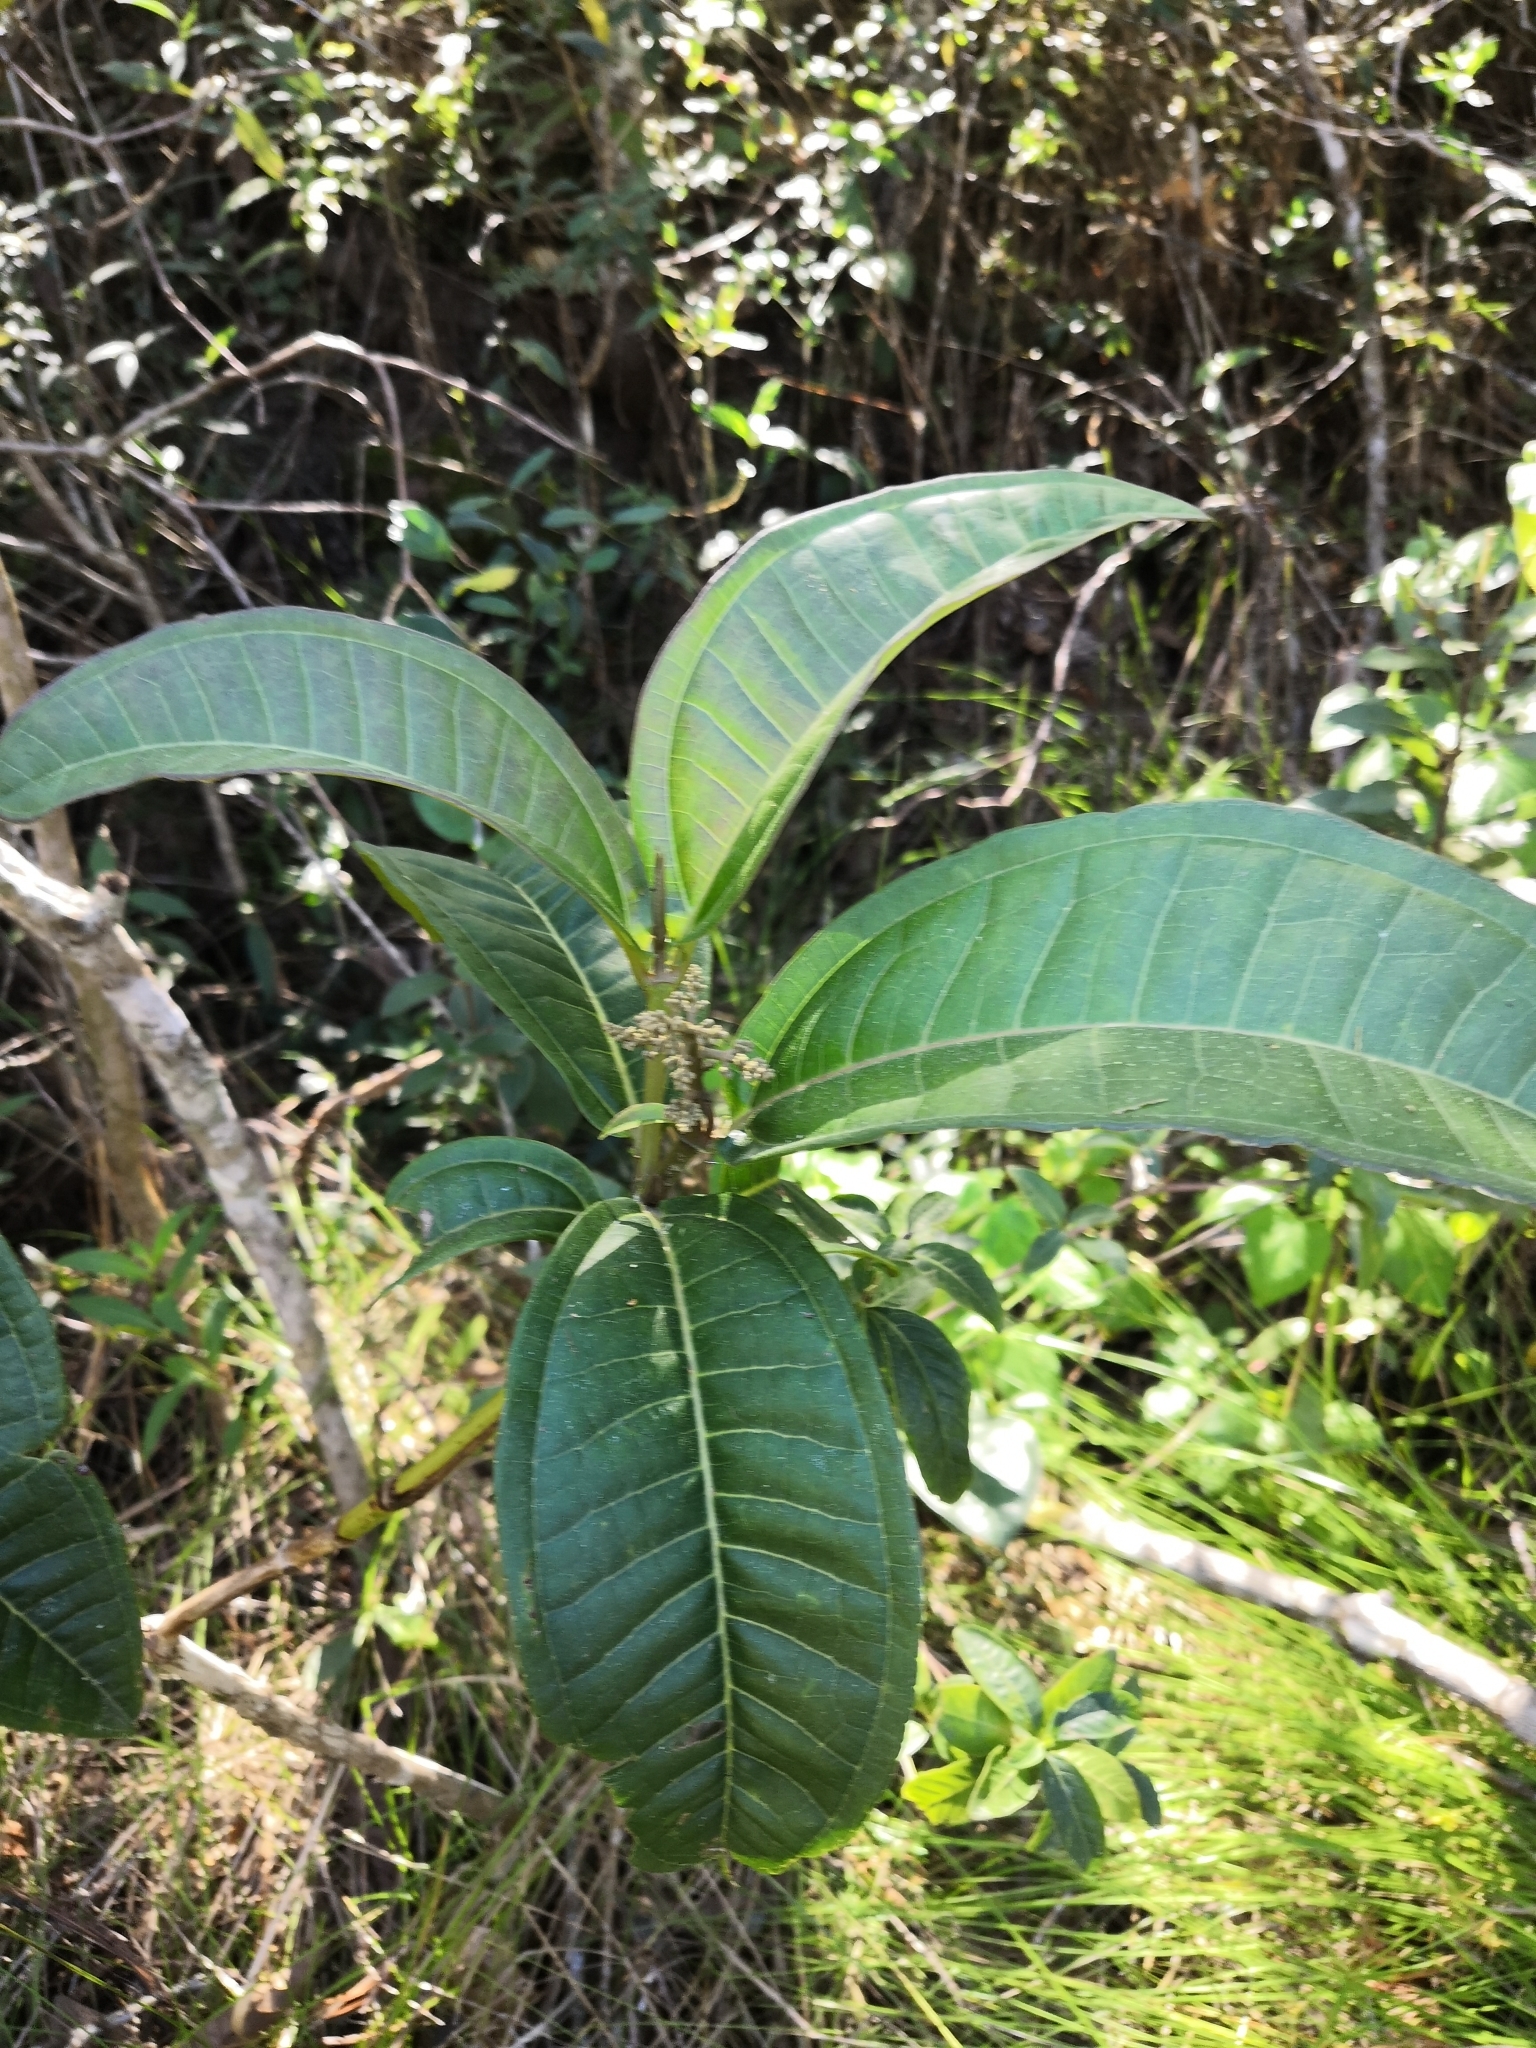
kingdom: Plantae
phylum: Tracheophyta
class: Magnoliopsida
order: Myrtales
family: Melastomataceae
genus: Miconia
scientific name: Miconia chamissois
